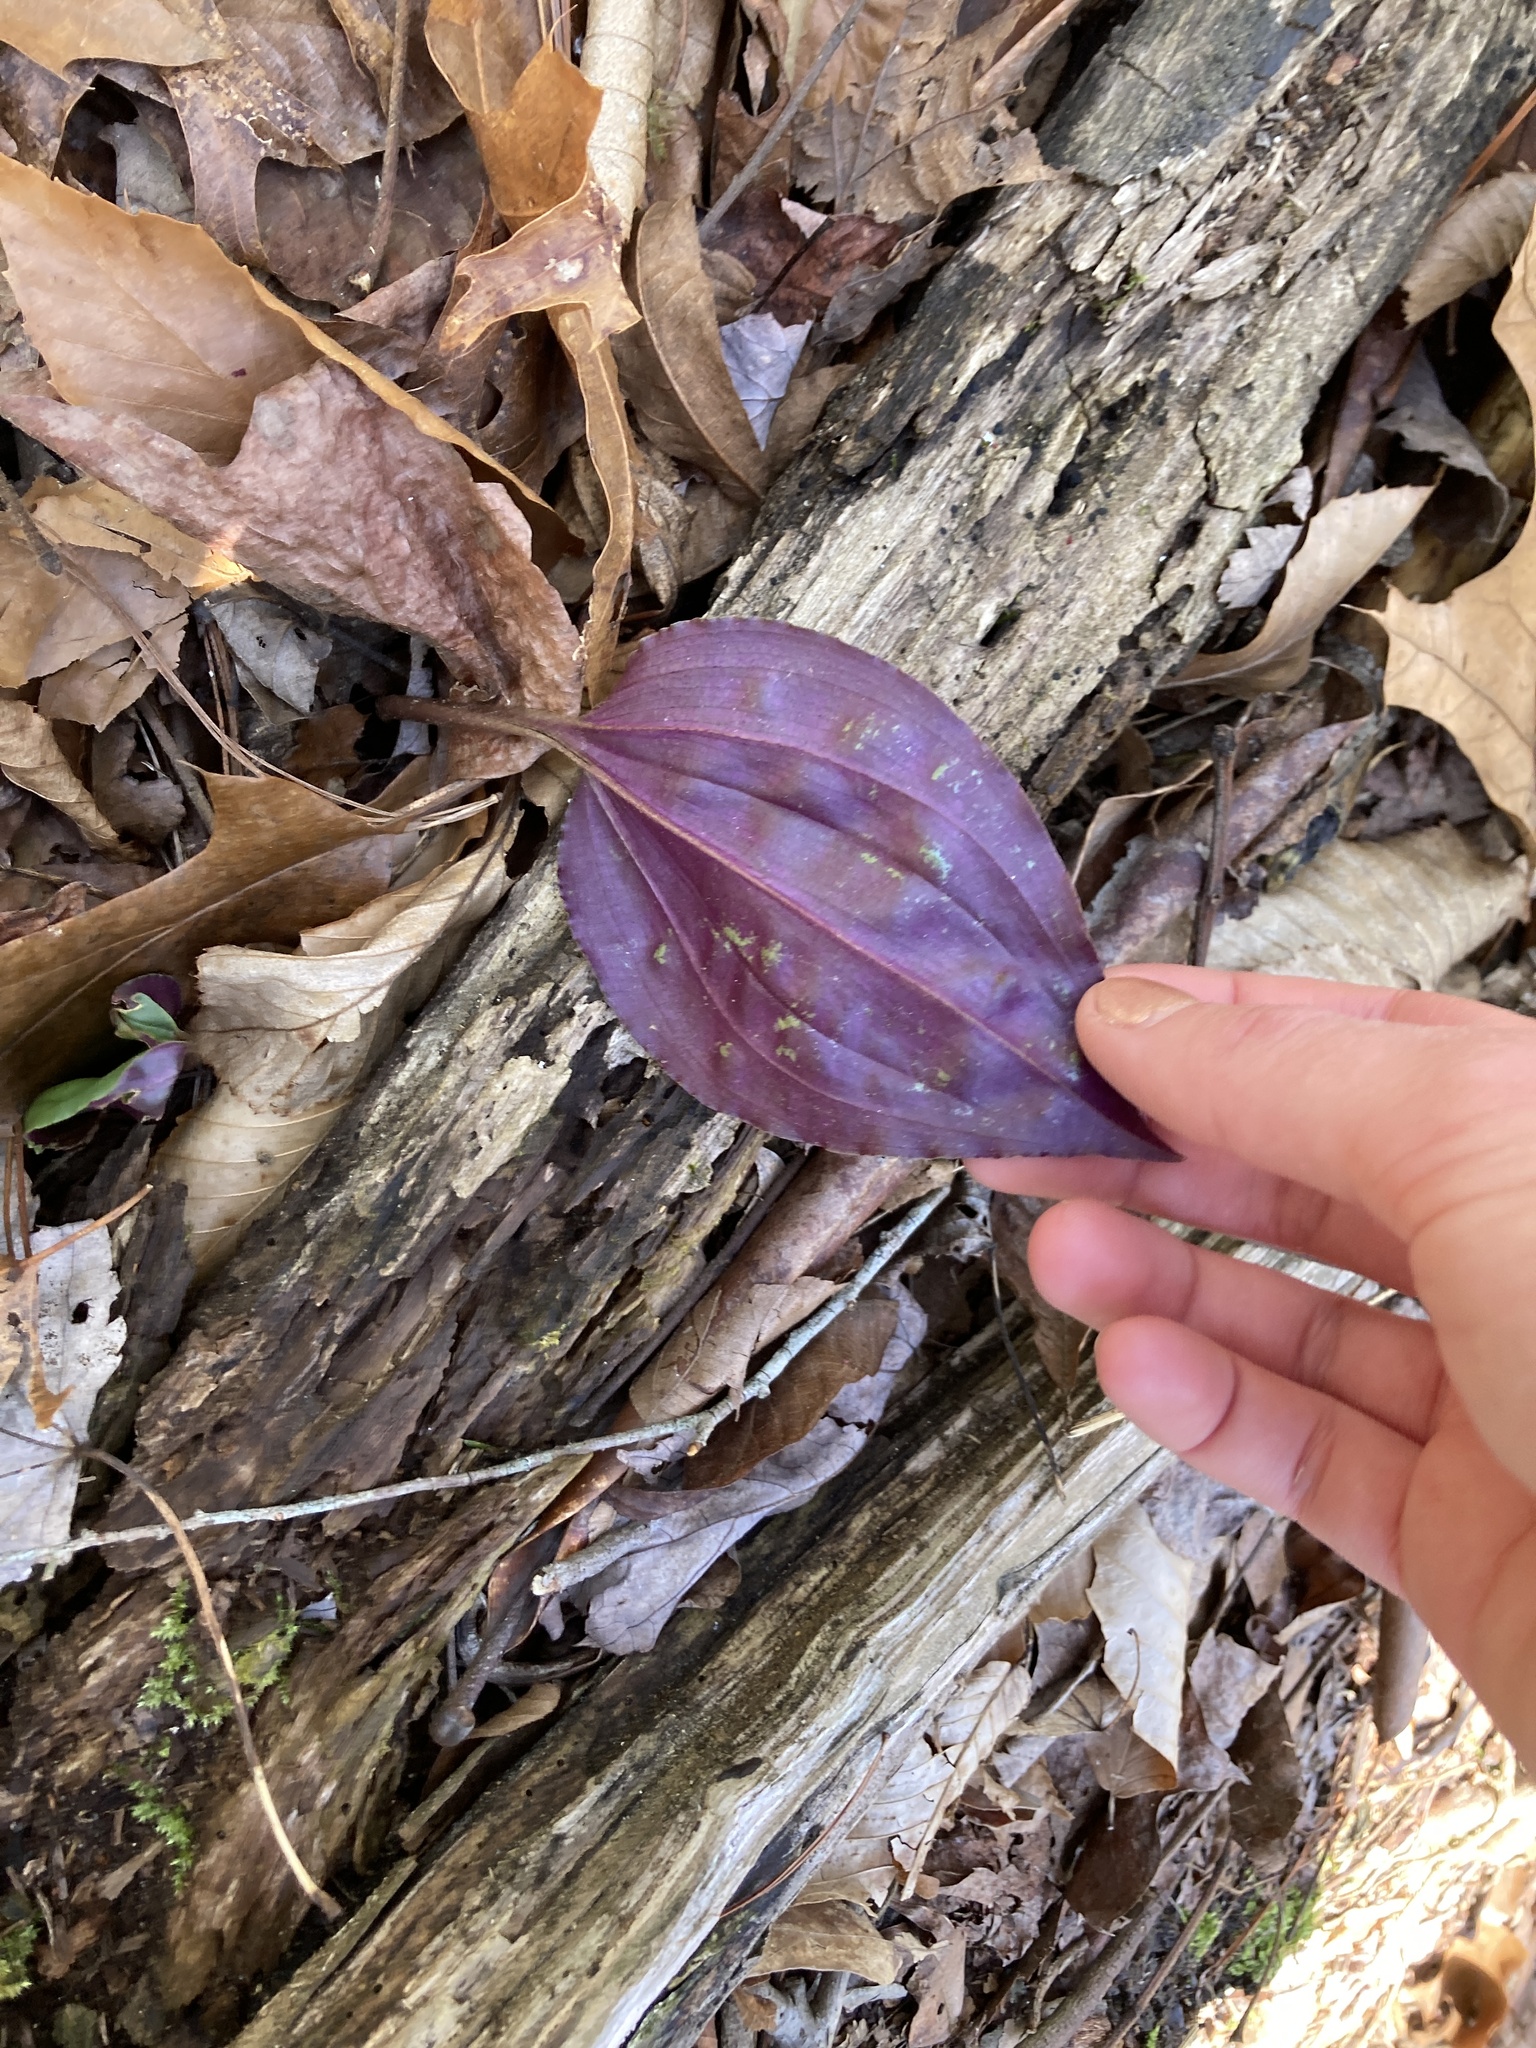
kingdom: Plantae
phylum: Tracheophyta
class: Liliopsida
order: Asparagales
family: Orchidaceae
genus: Tipularia
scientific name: Tipularia discolor
